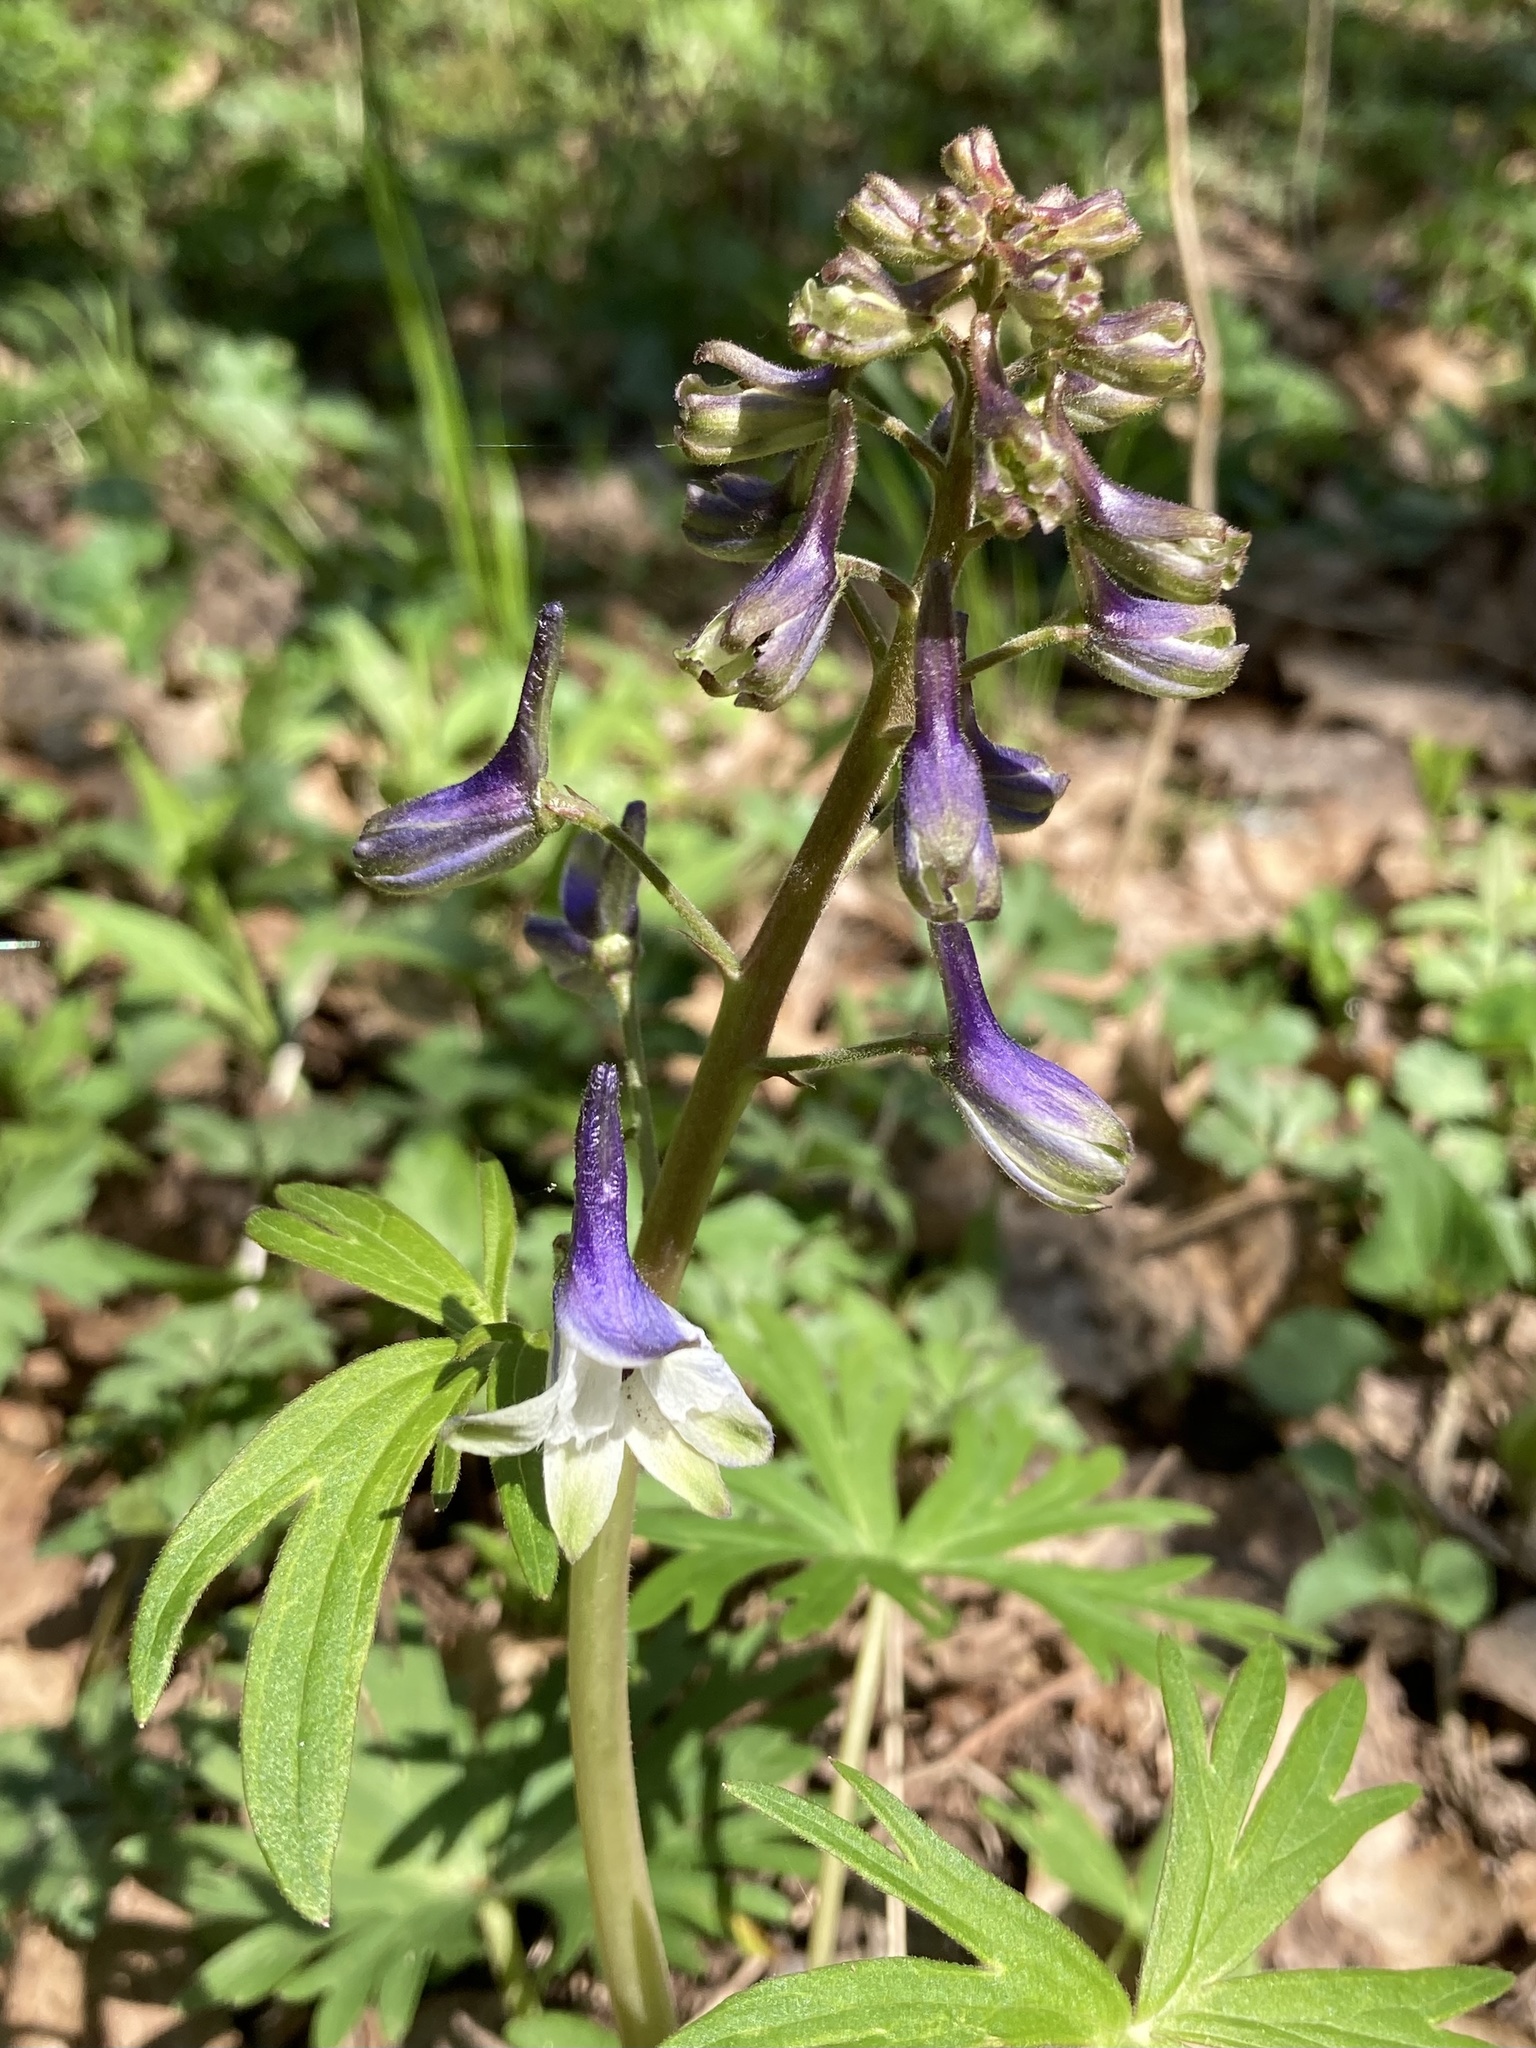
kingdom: Plantae
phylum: Tracheophyta
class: Magnoliopsida
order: Ranunculales
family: Ranunculaceae
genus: Delphinium
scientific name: Delphinium tricorne
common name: Dwarf larkspur
